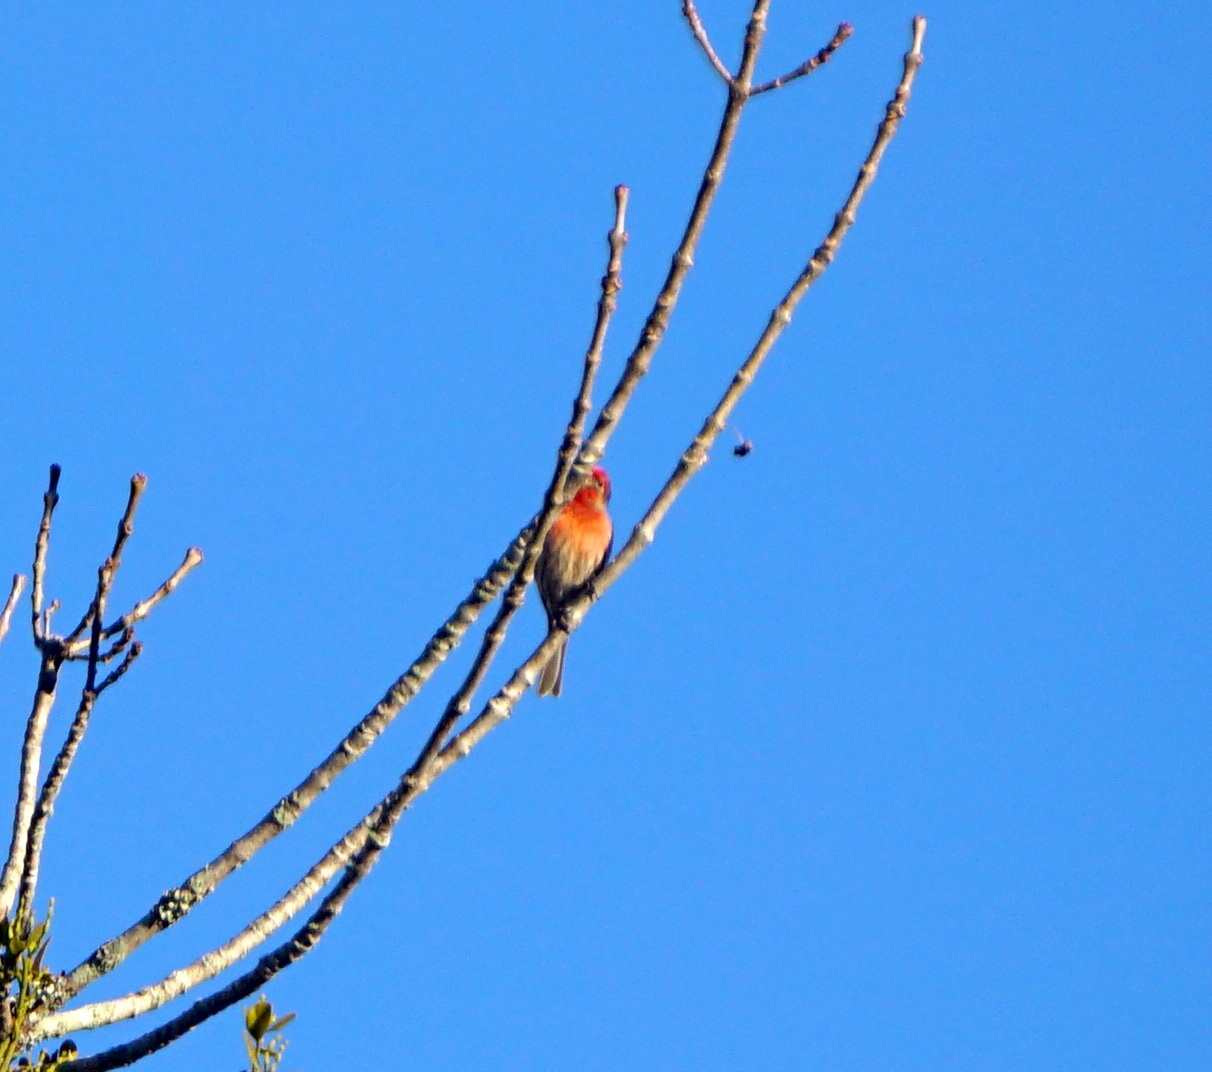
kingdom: Animalia
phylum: Chordata
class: Aves
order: Passeriformes
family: Fringillidae
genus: Haemorhous
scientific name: Haemorhous mexicanus
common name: House finch
